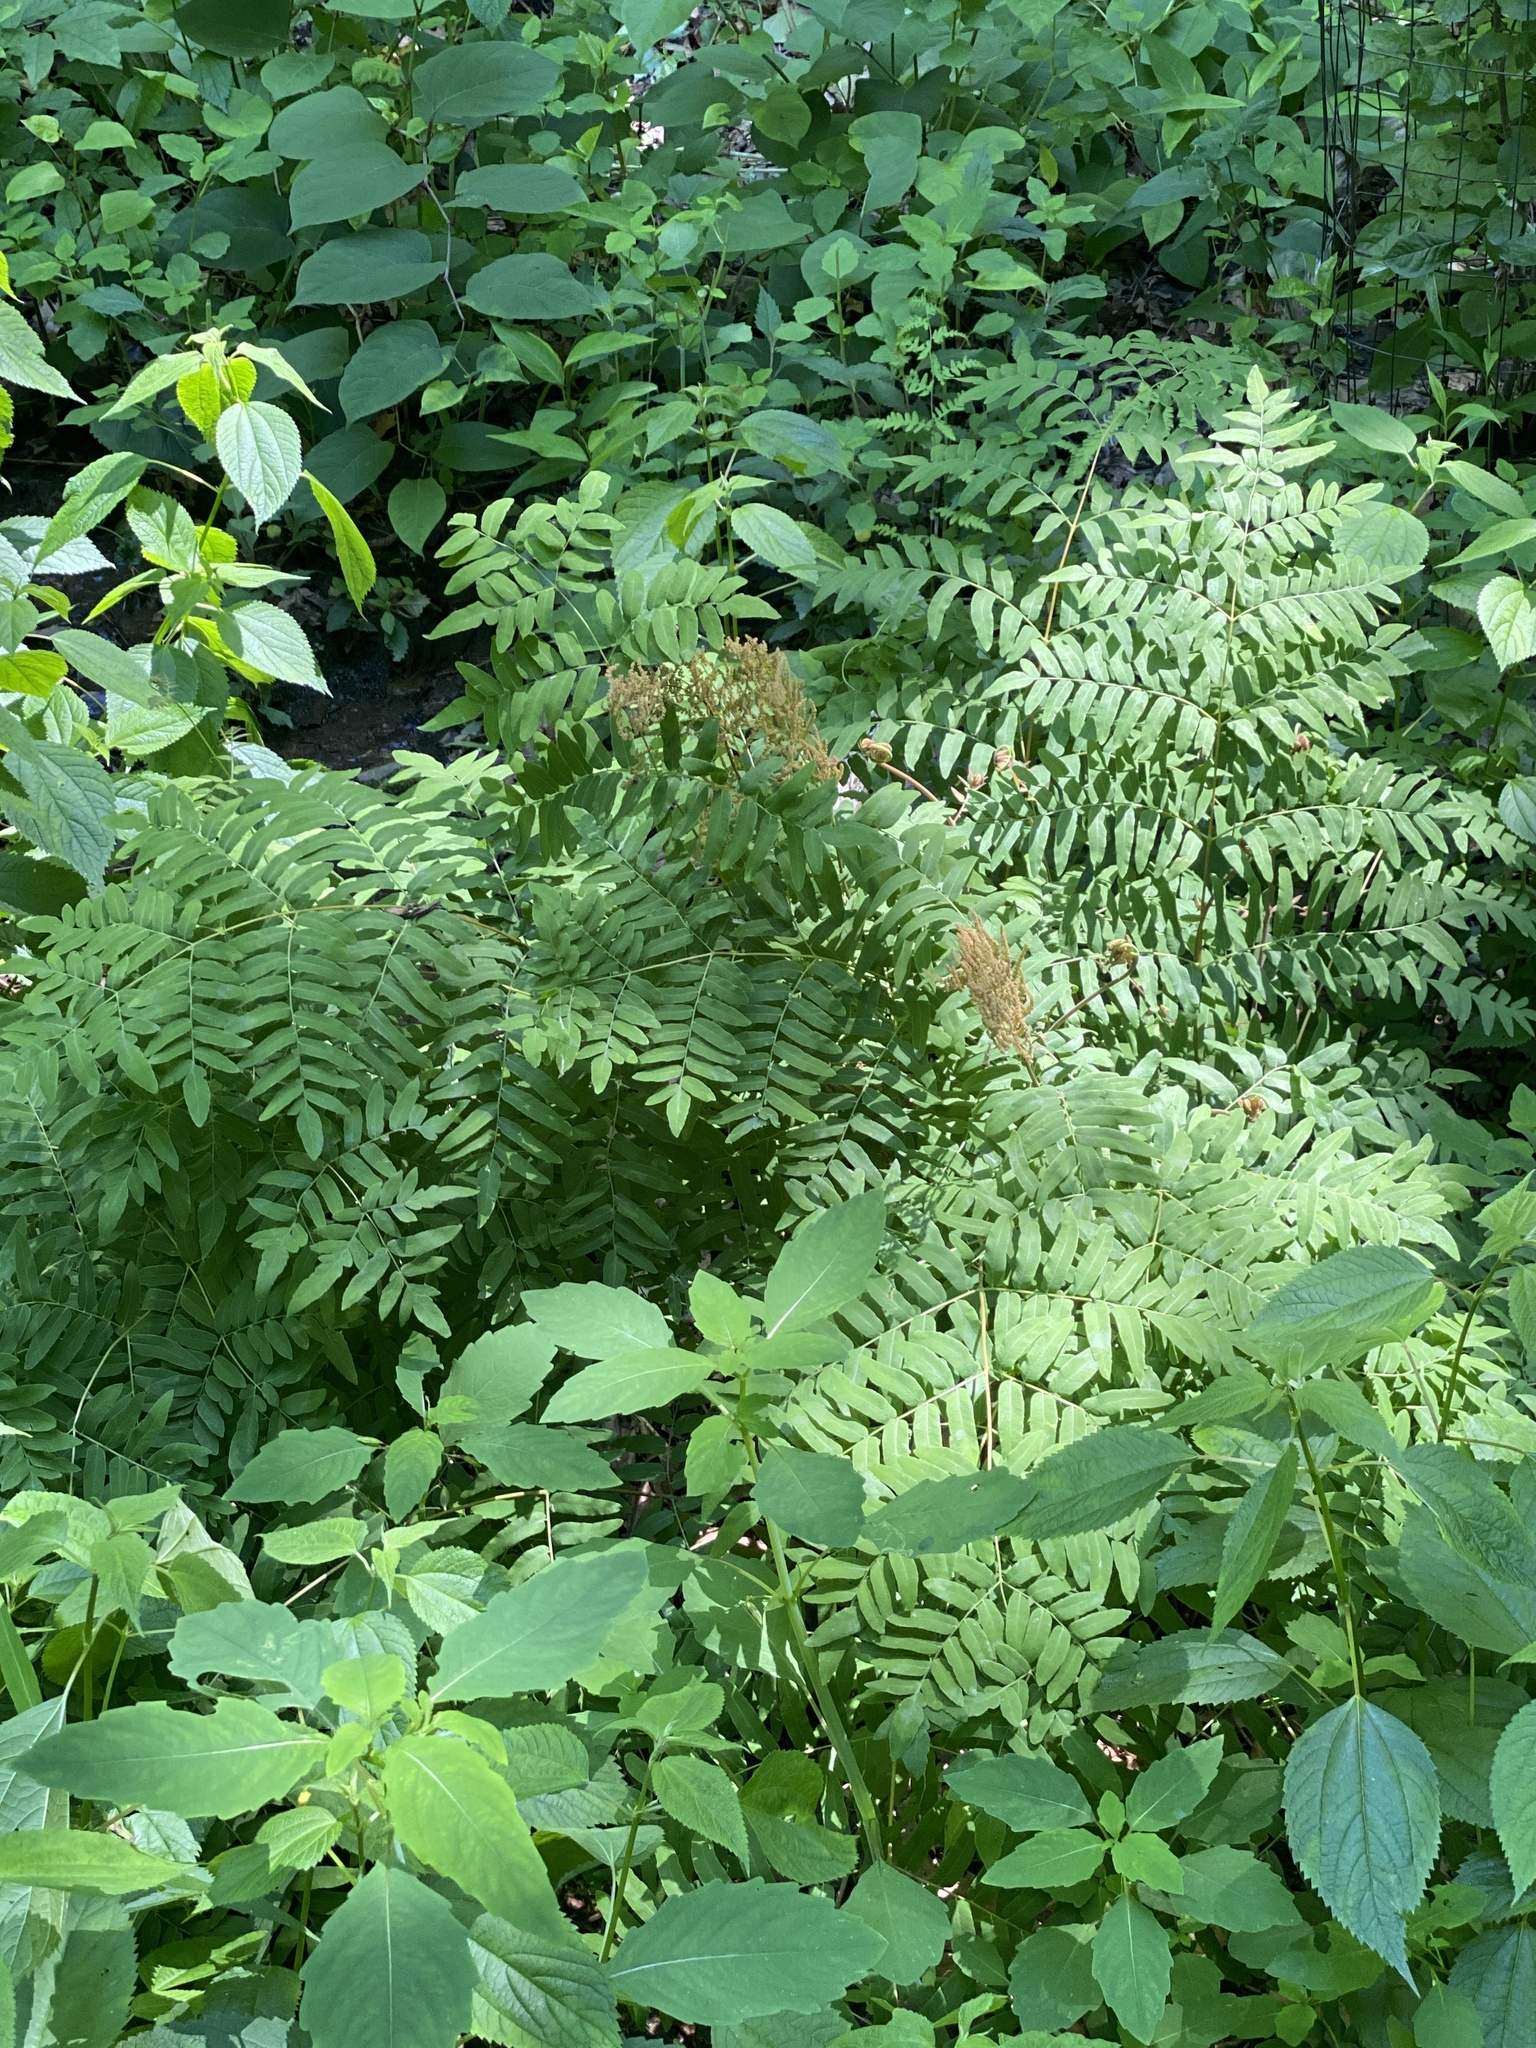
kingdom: Plantae
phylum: Tracheophyta
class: Polypodiopsida
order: Osmundales
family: Osmundaceae
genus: Osmunda
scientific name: Osmunda spectabilis
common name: American royal fern
